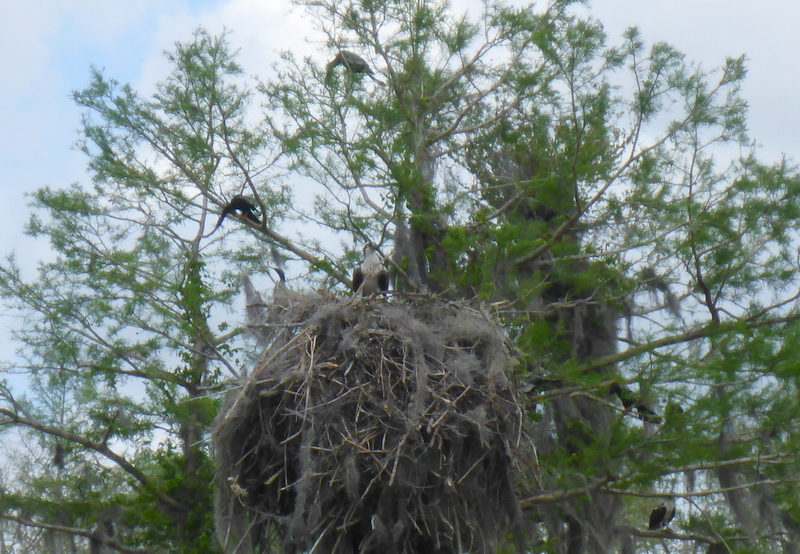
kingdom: Animalia
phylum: Chordata
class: Aves
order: Accipitriformes
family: Pandionidae
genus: Pandion
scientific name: Pandion haliaetus
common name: Osprey
